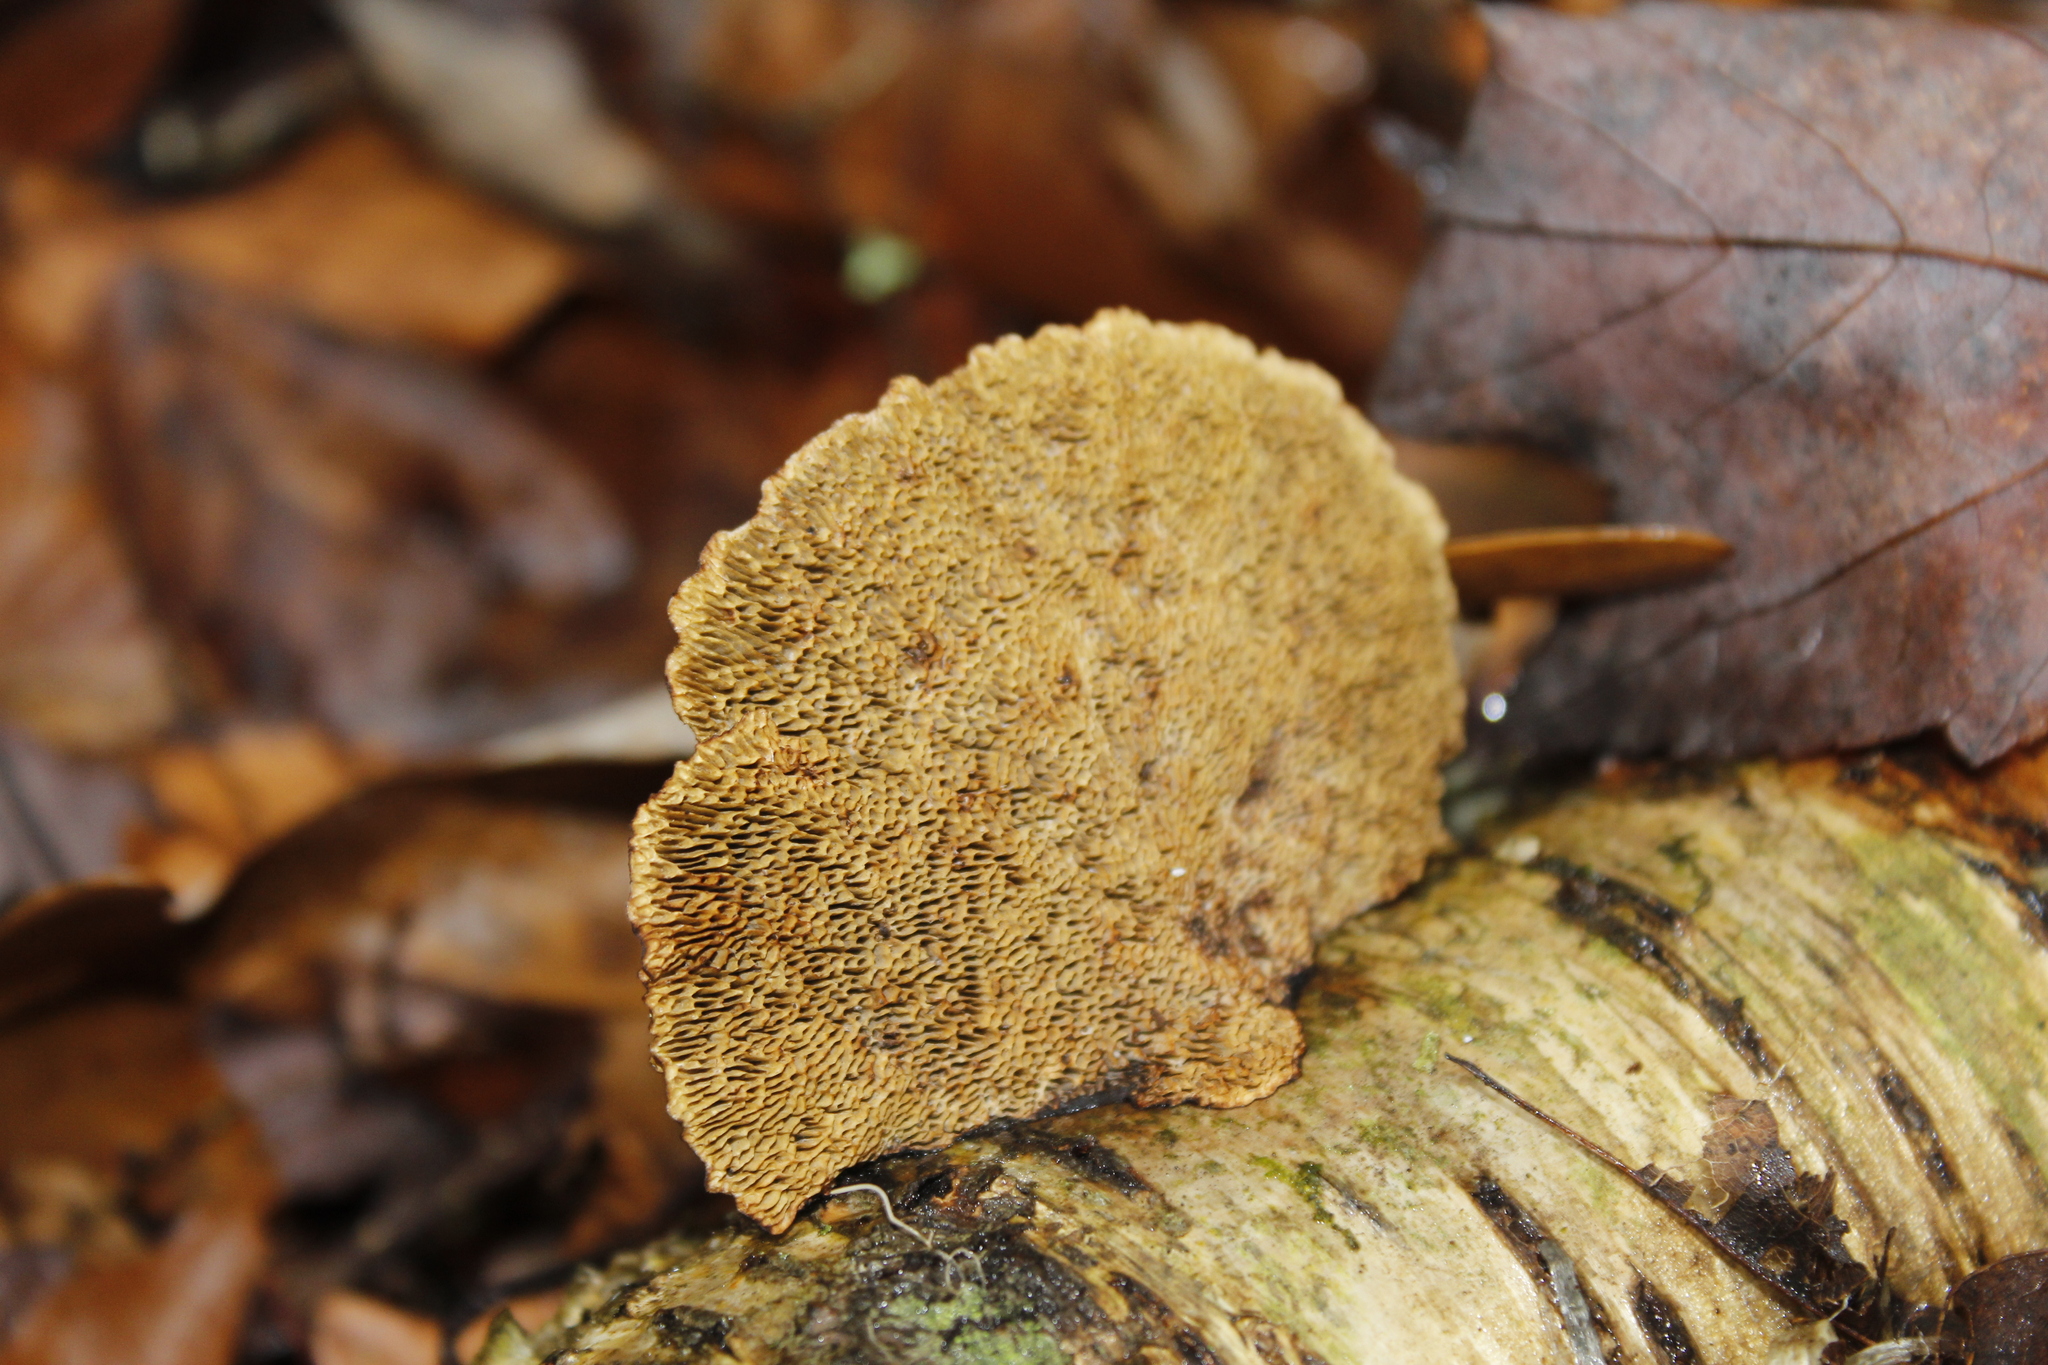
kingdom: Fungi
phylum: Basidiomycota
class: Agaricomycetes
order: Polyporales
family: Polyporaceae
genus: Daedaleopsis
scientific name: Daedaleopsis confragosa
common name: Blushing bracket
